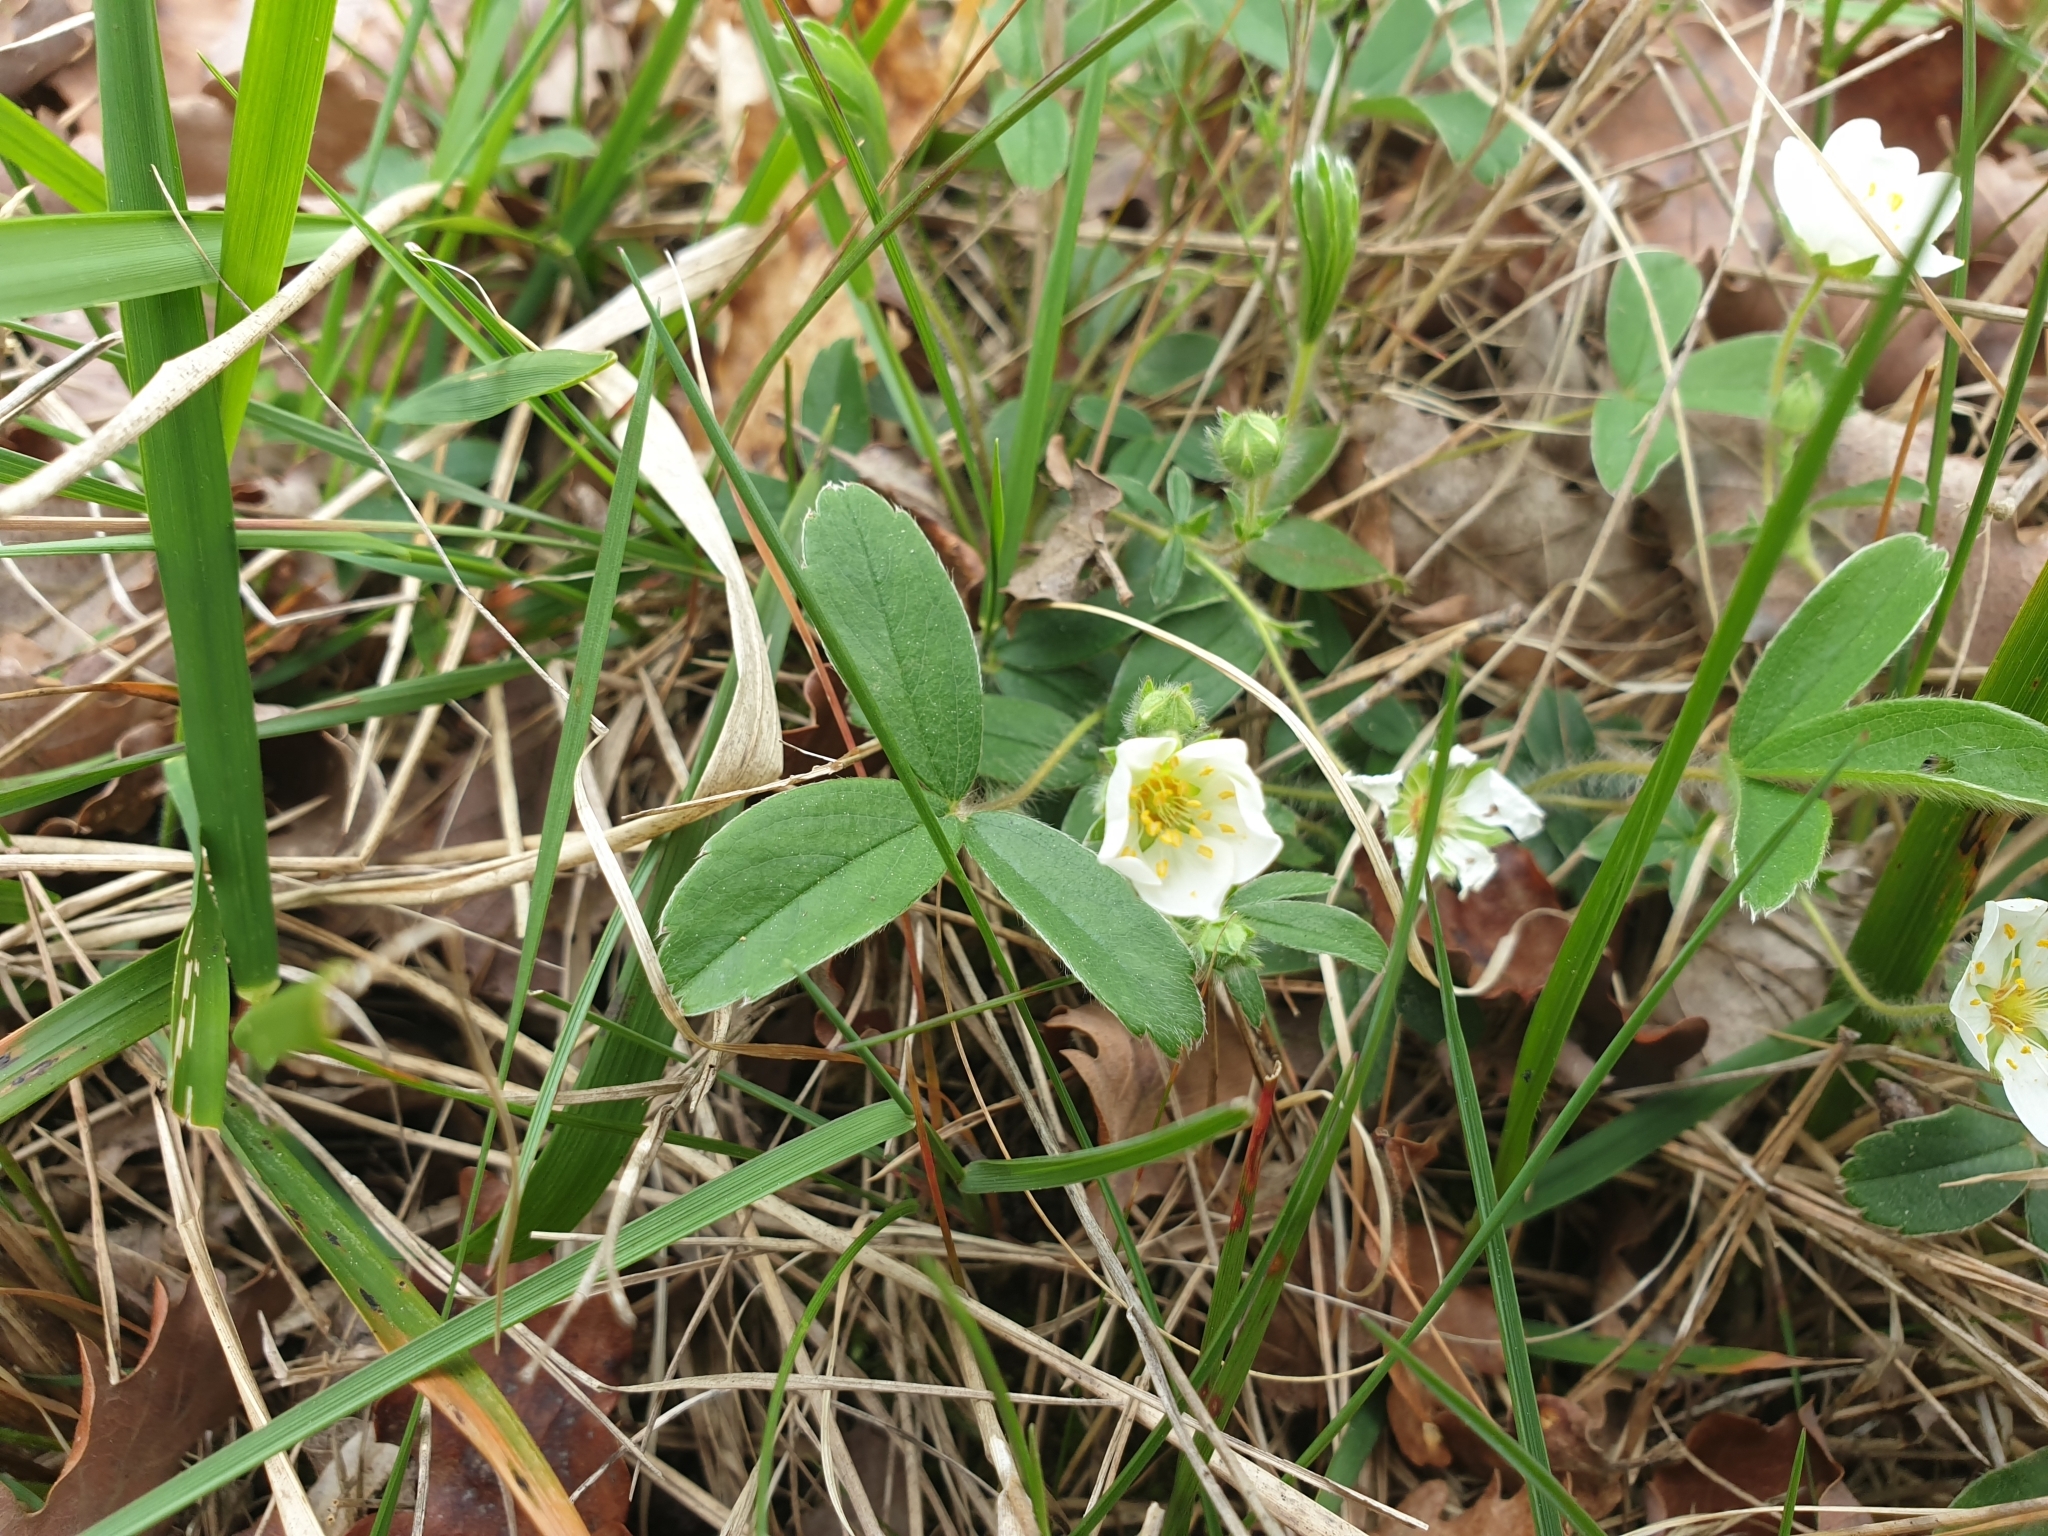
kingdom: Plantae
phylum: Tracheophyta
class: Magnoliopsida
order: Rosales
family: Rosaceae
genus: Potentilla
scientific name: Potentilla montana
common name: Mountain cinquefoil
